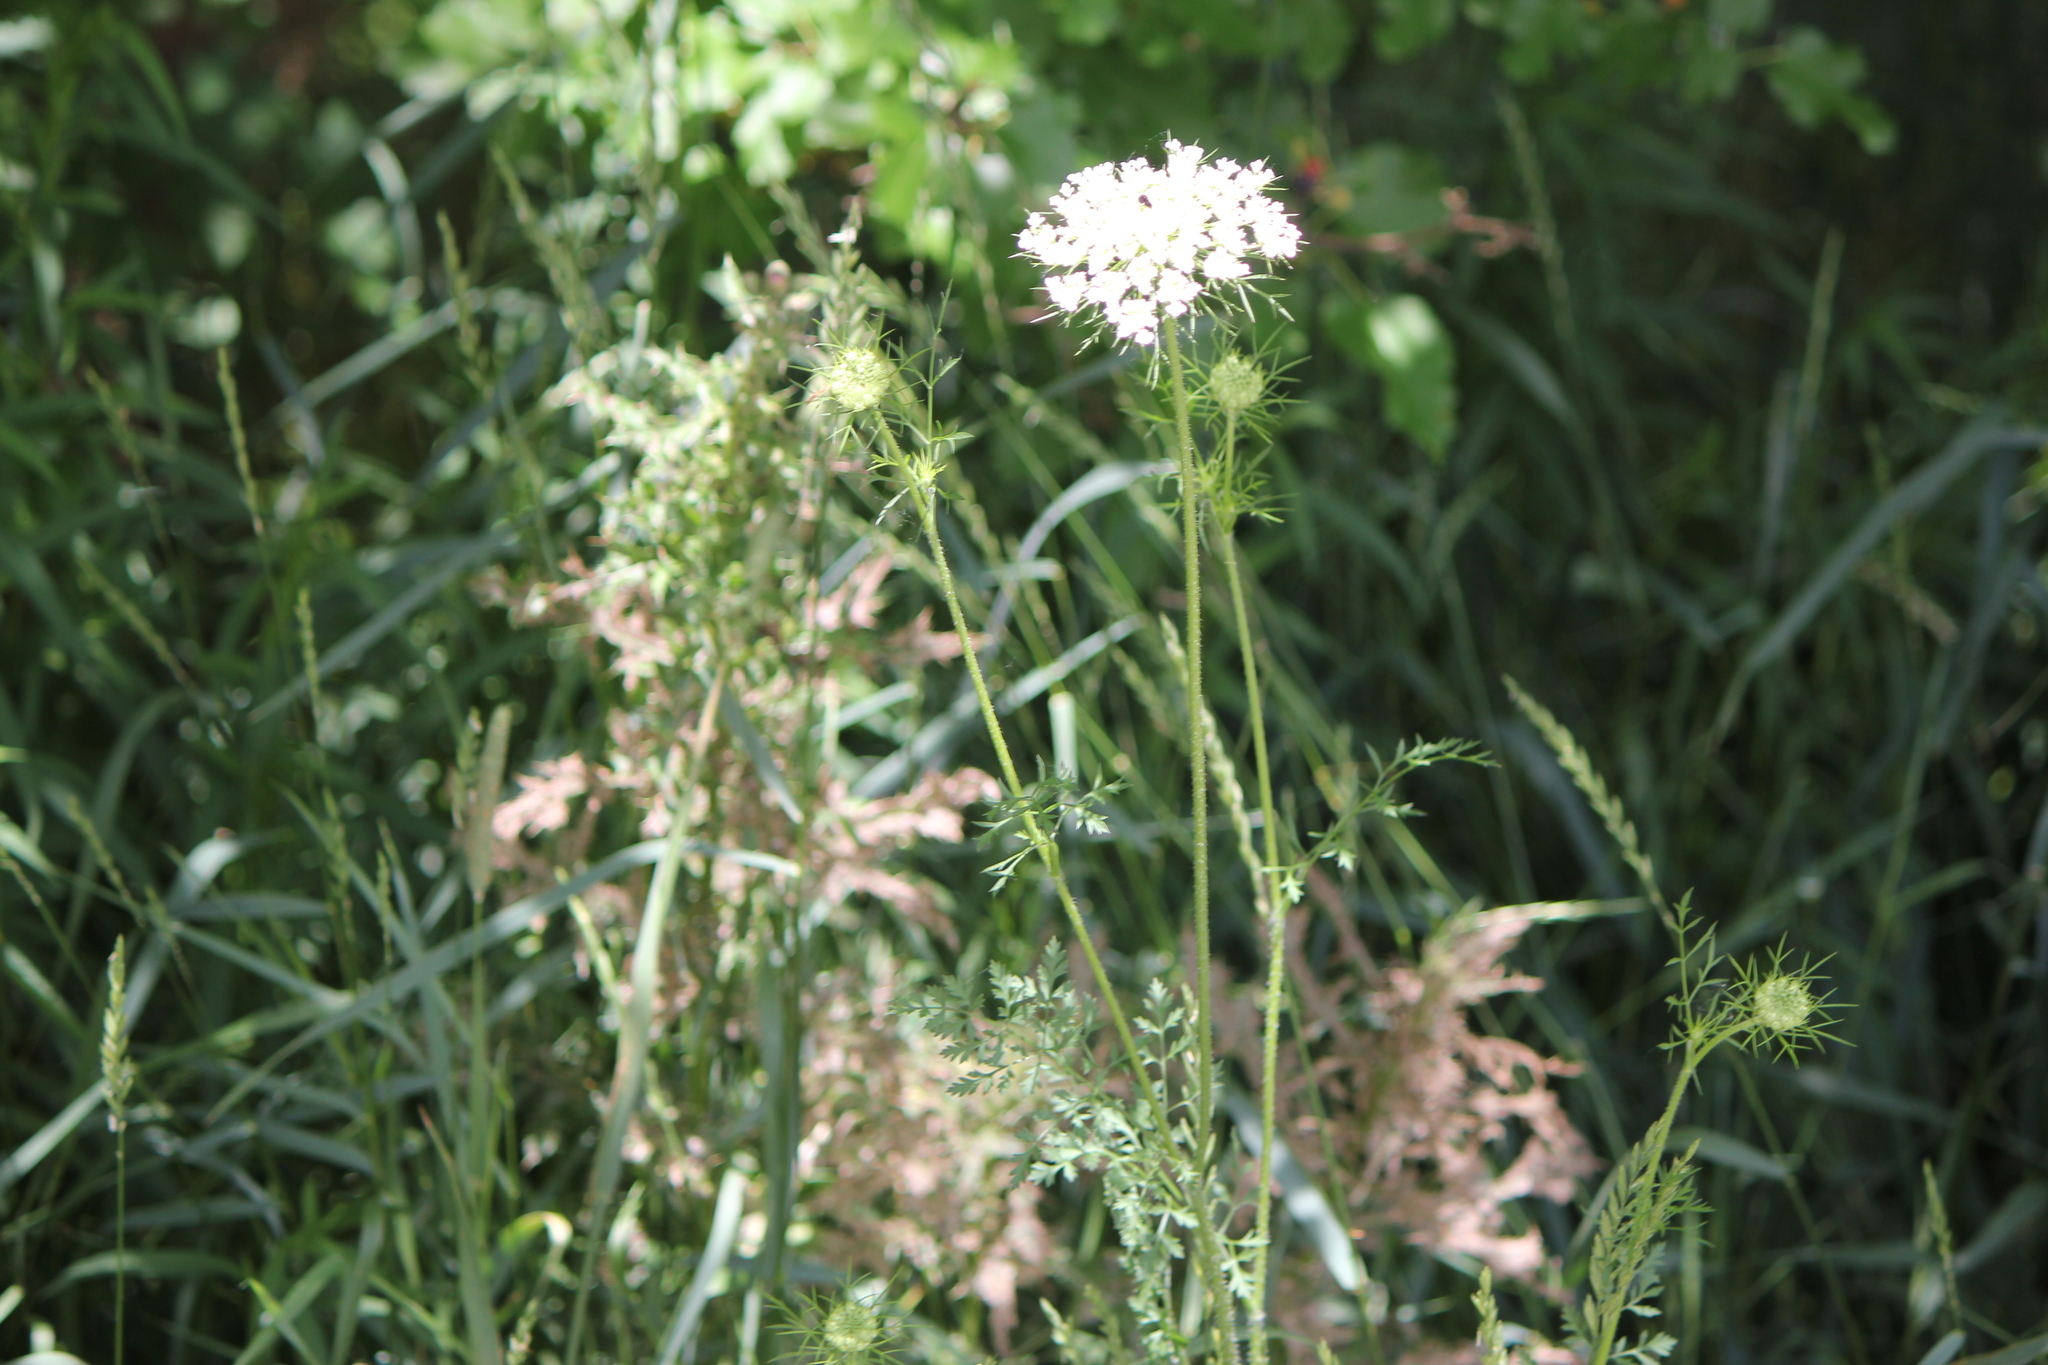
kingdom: Plantae
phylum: Tracheophyta
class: Magnoliopsida
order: Apiales
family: Apiaceae
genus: Daucus
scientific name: Daucus carota
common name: Wild carrot
